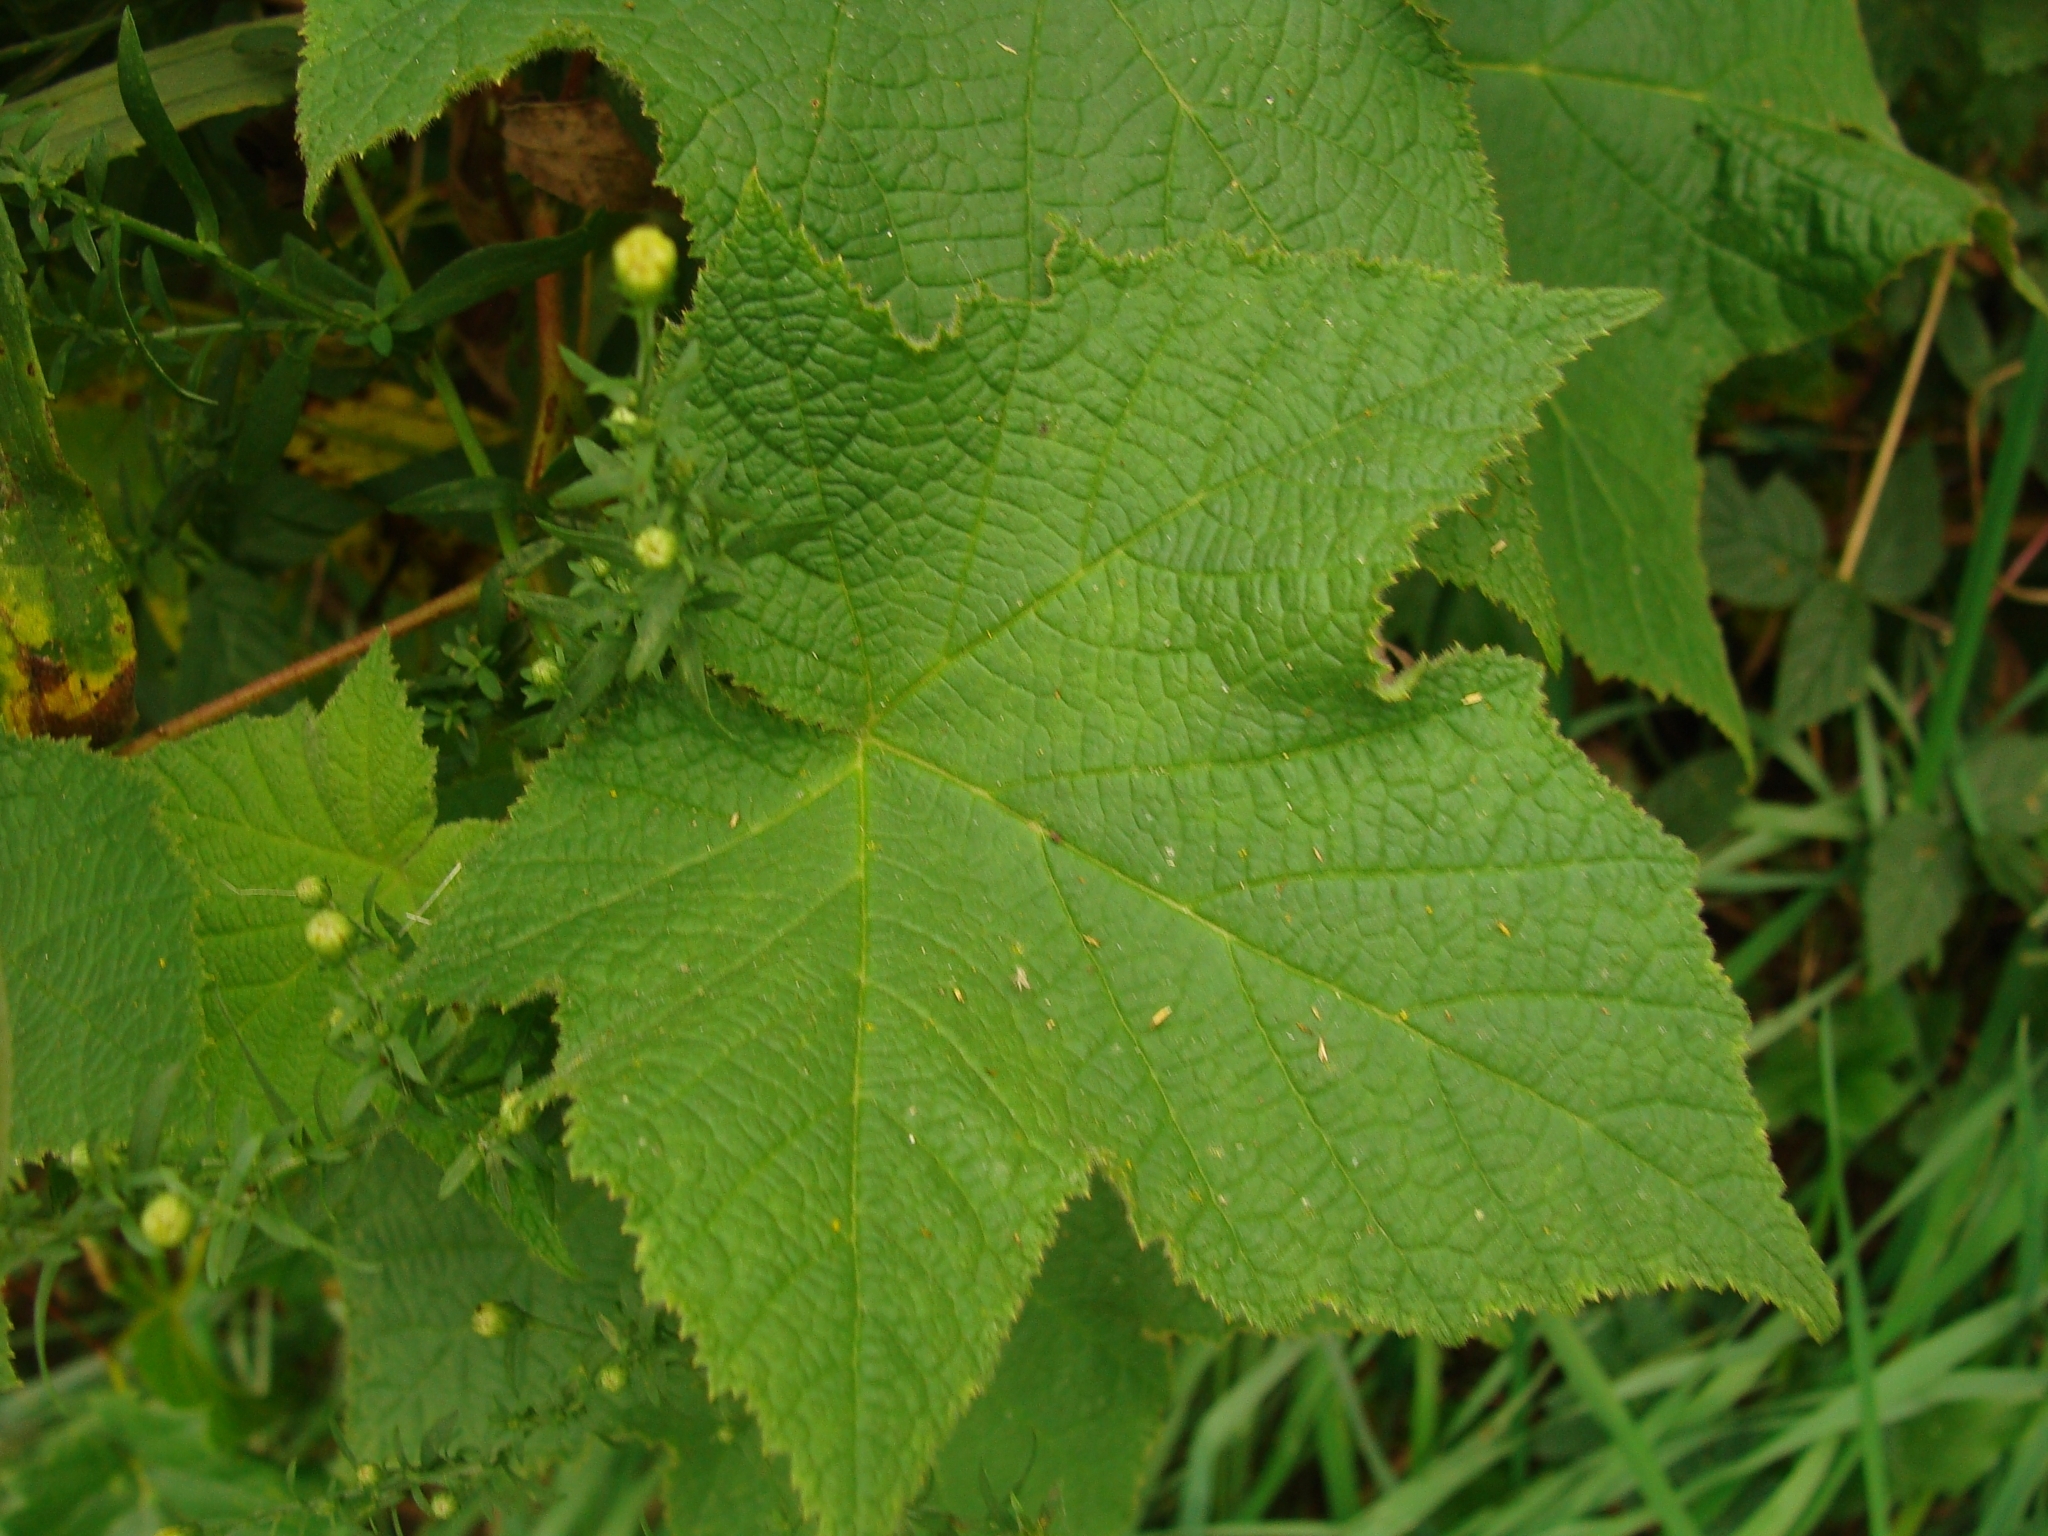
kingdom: Plantae
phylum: Tracheophyta
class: Magnoliopsida
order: Rosales
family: Rosaceae
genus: Rubus
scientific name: Rubus odoratus
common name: Purple-flowered raspberry
